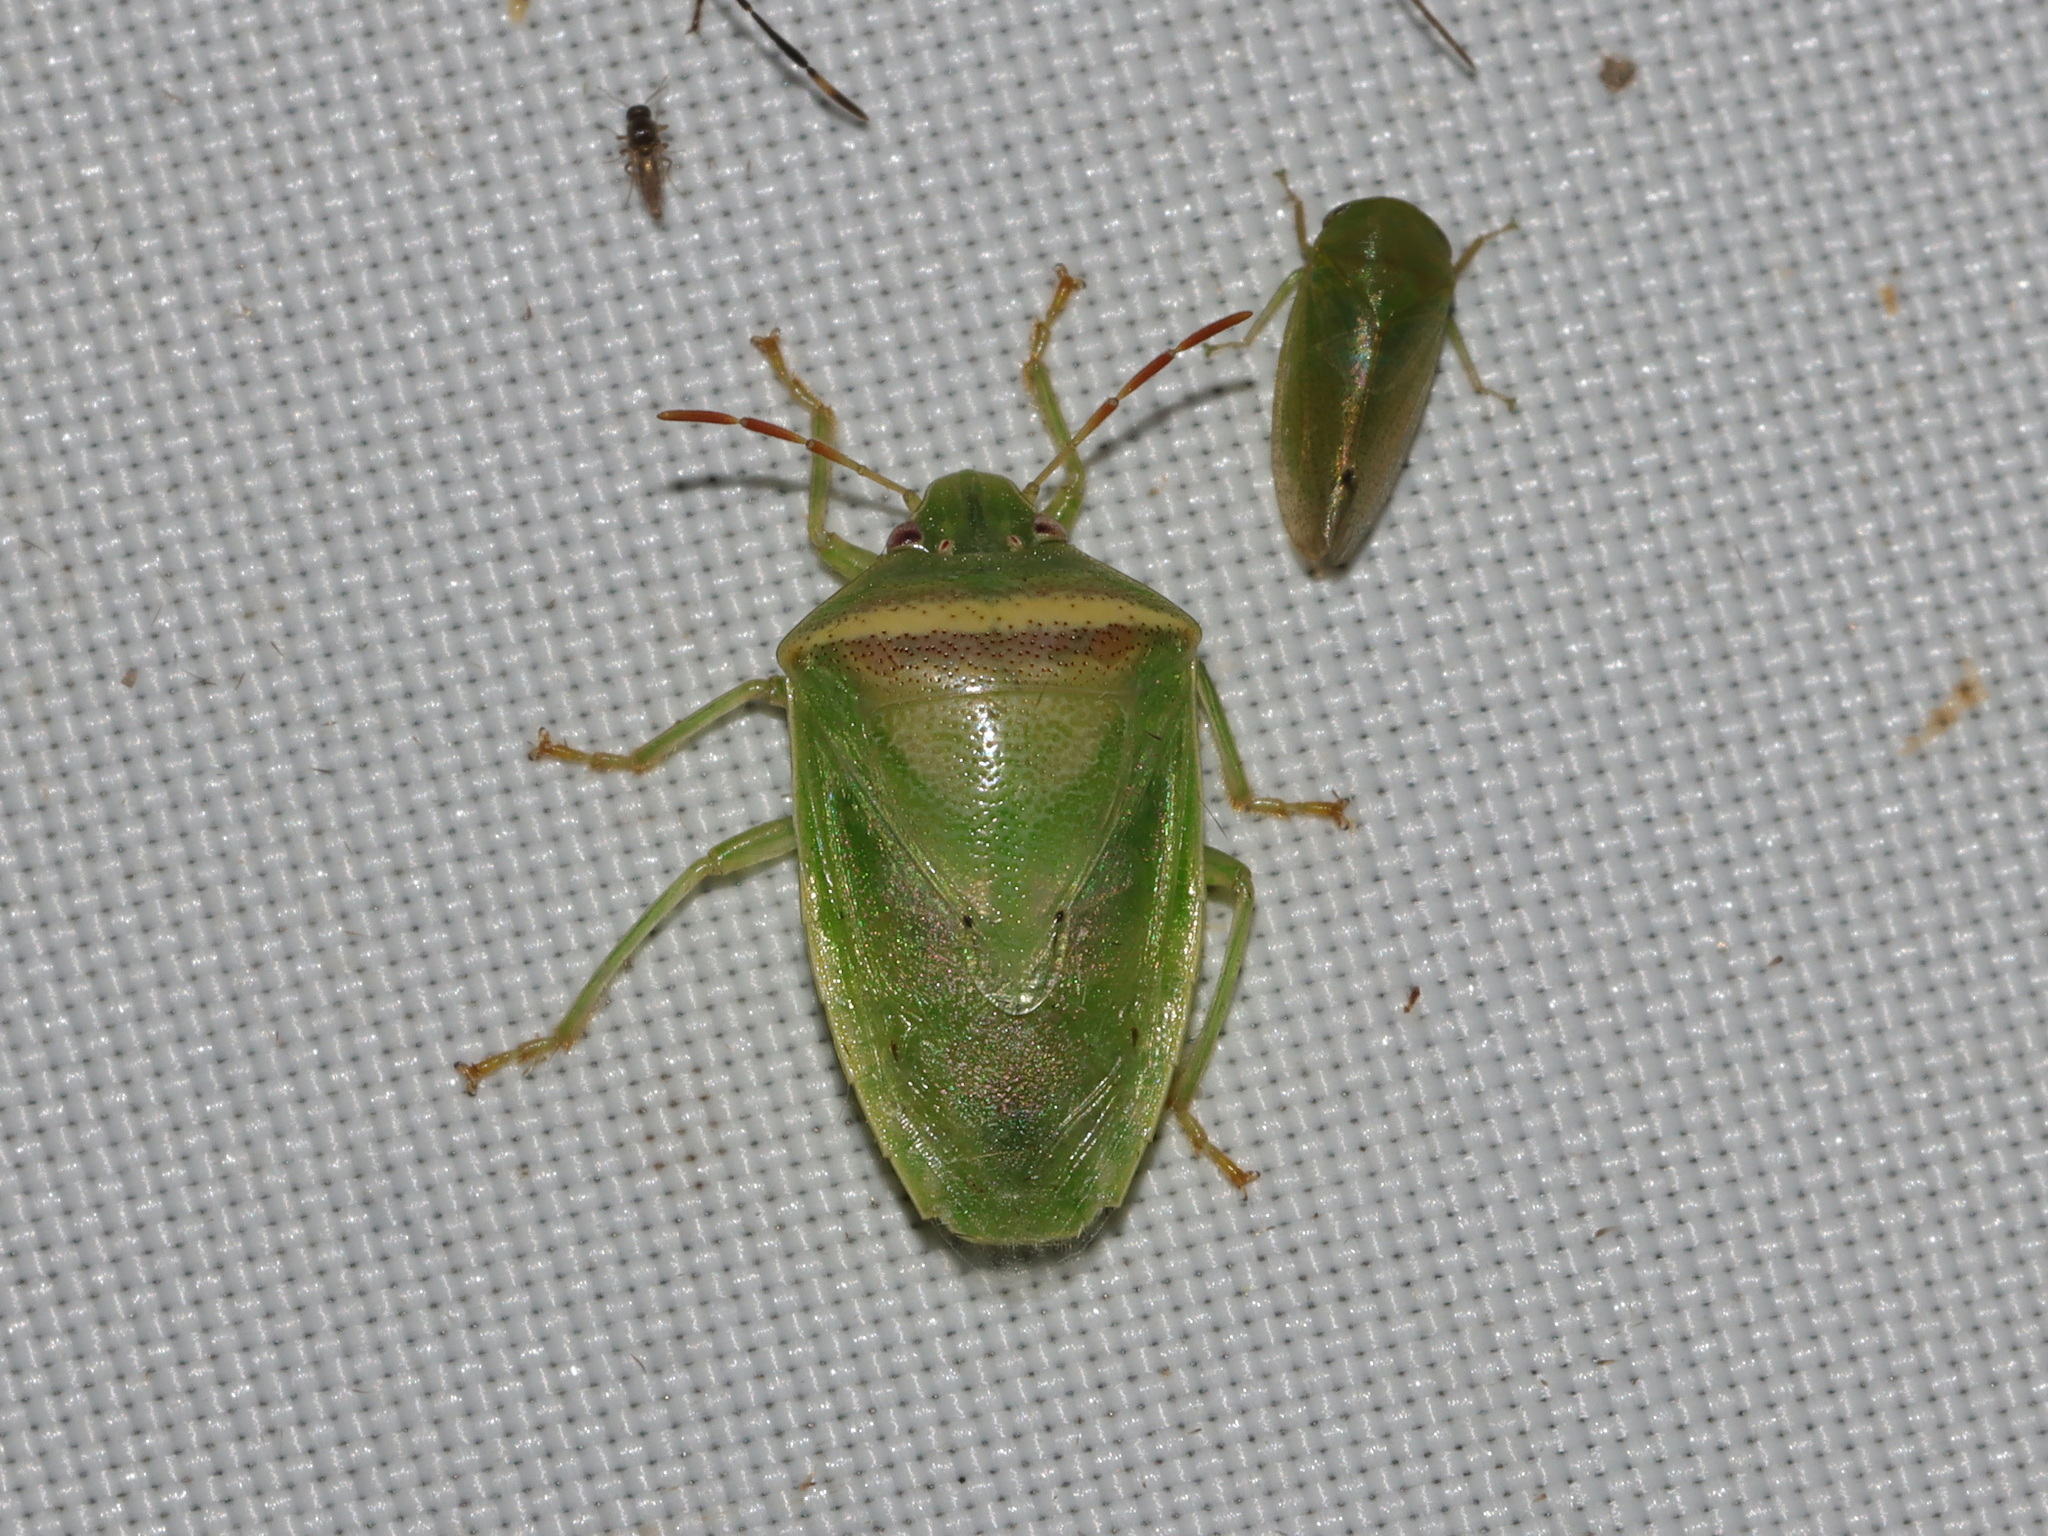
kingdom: Animalia
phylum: Arthropoda
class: Insecta
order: Hemiptera
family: Pentatomidae
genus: Piezodorus
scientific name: Piezodorus hybneri
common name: Stink bug
